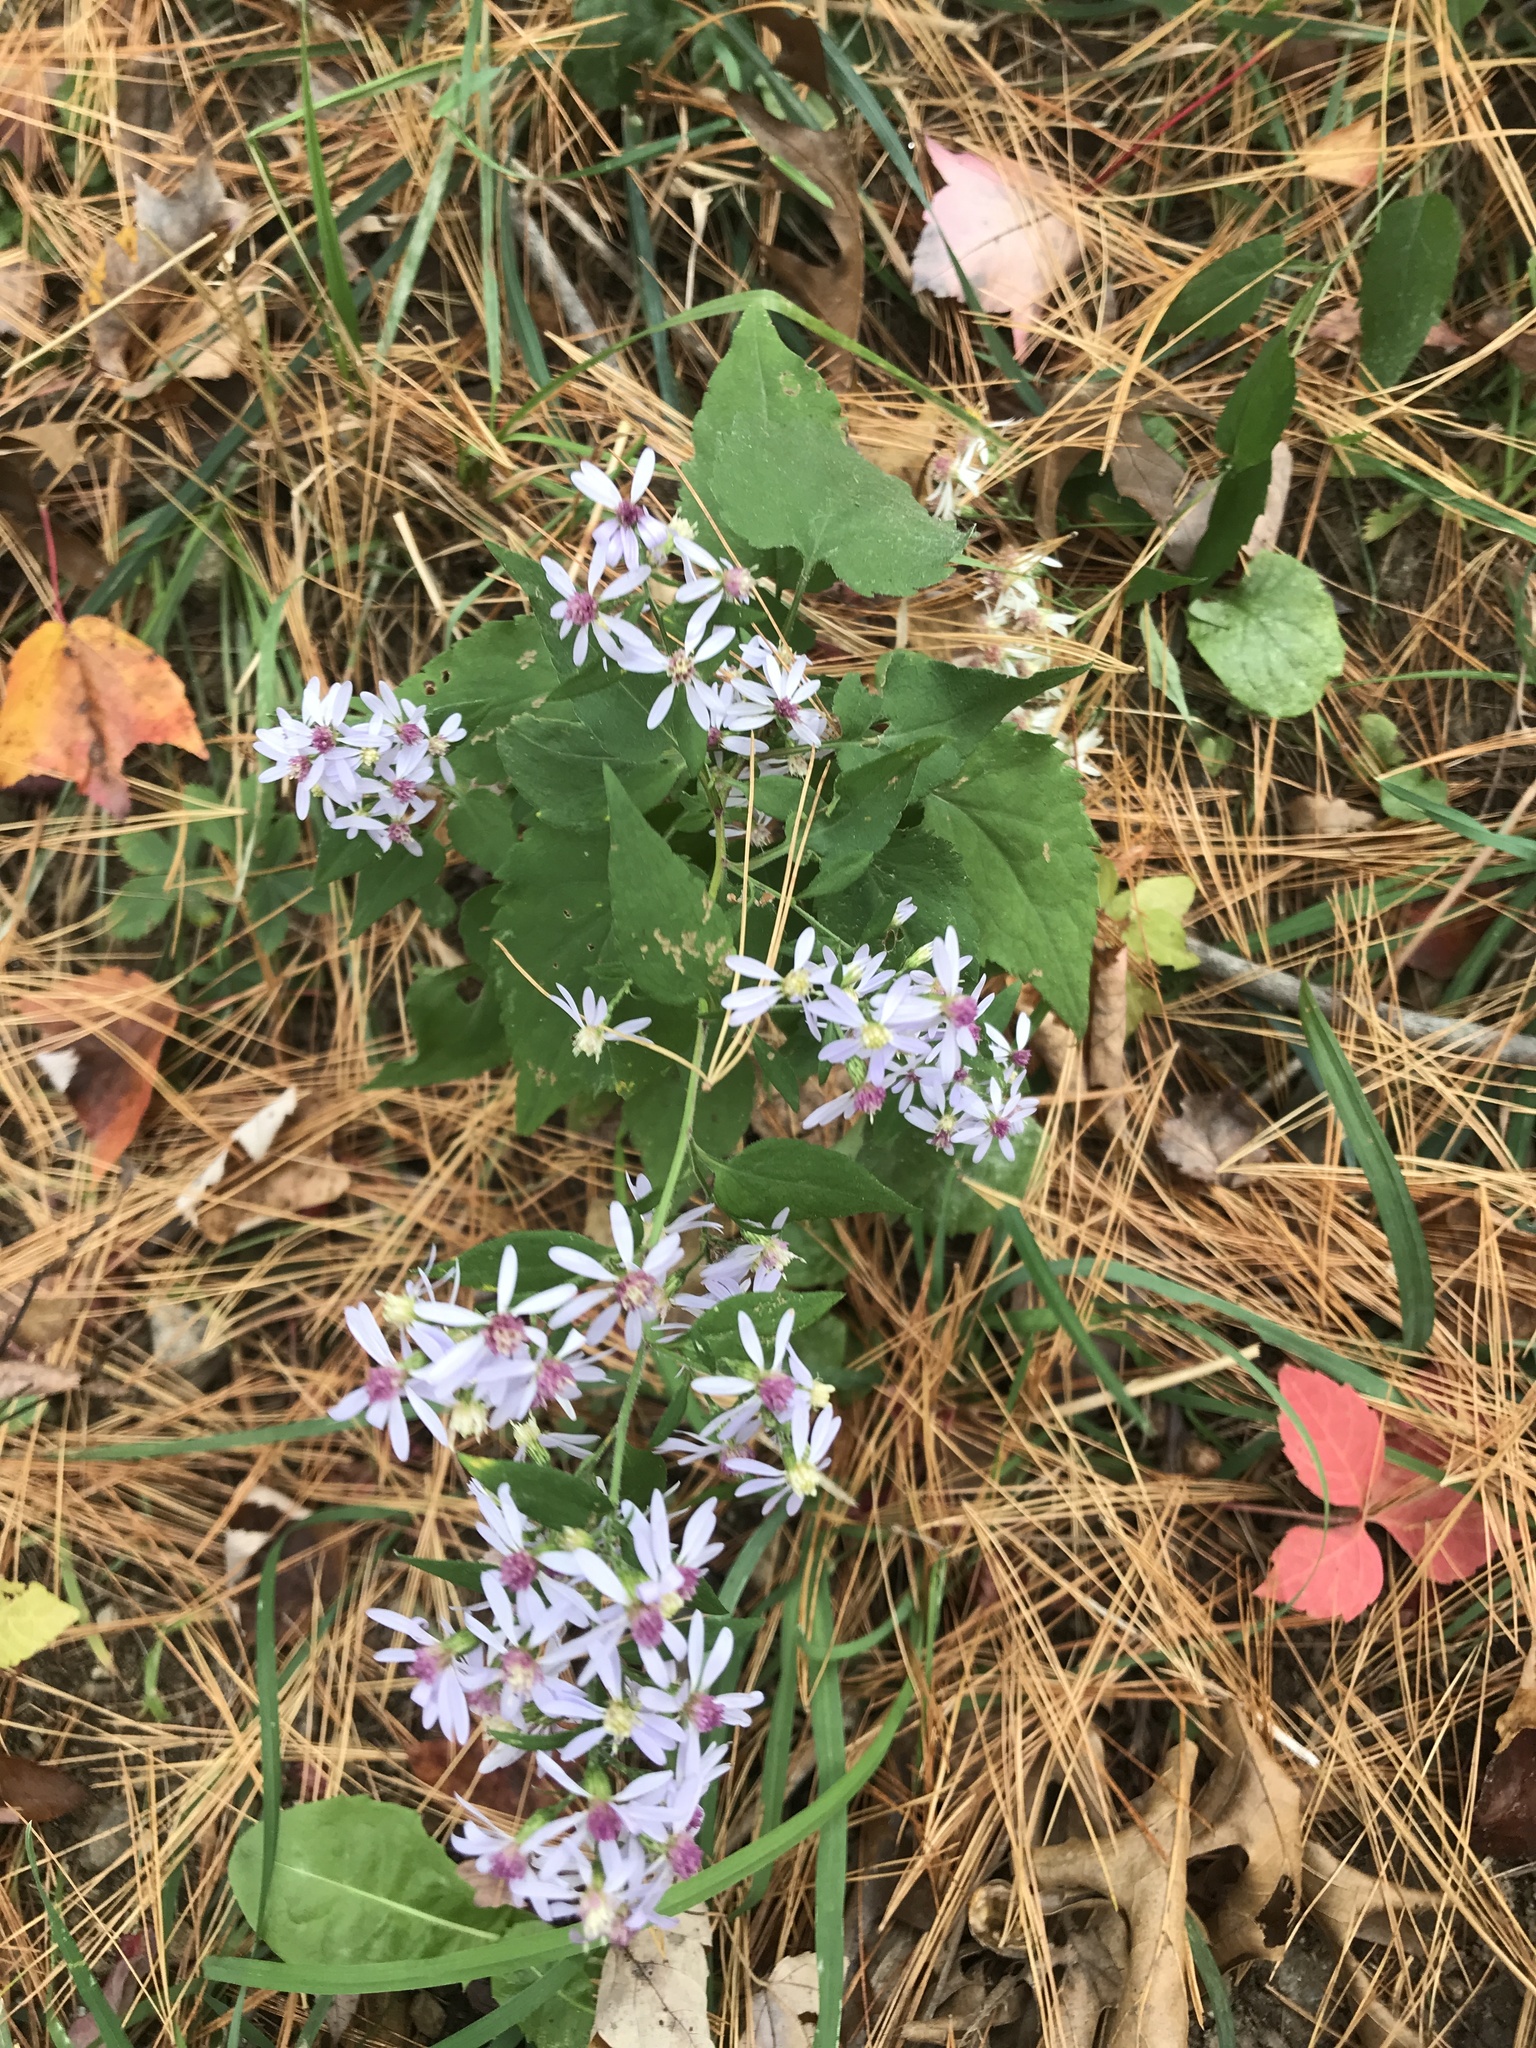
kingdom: Plantae
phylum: Tracheophyta
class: Magnoliopsida
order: Asterales
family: Asteraceae
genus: Symphyotrichum
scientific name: Symphyotrichum cordifolium
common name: Beeweed
